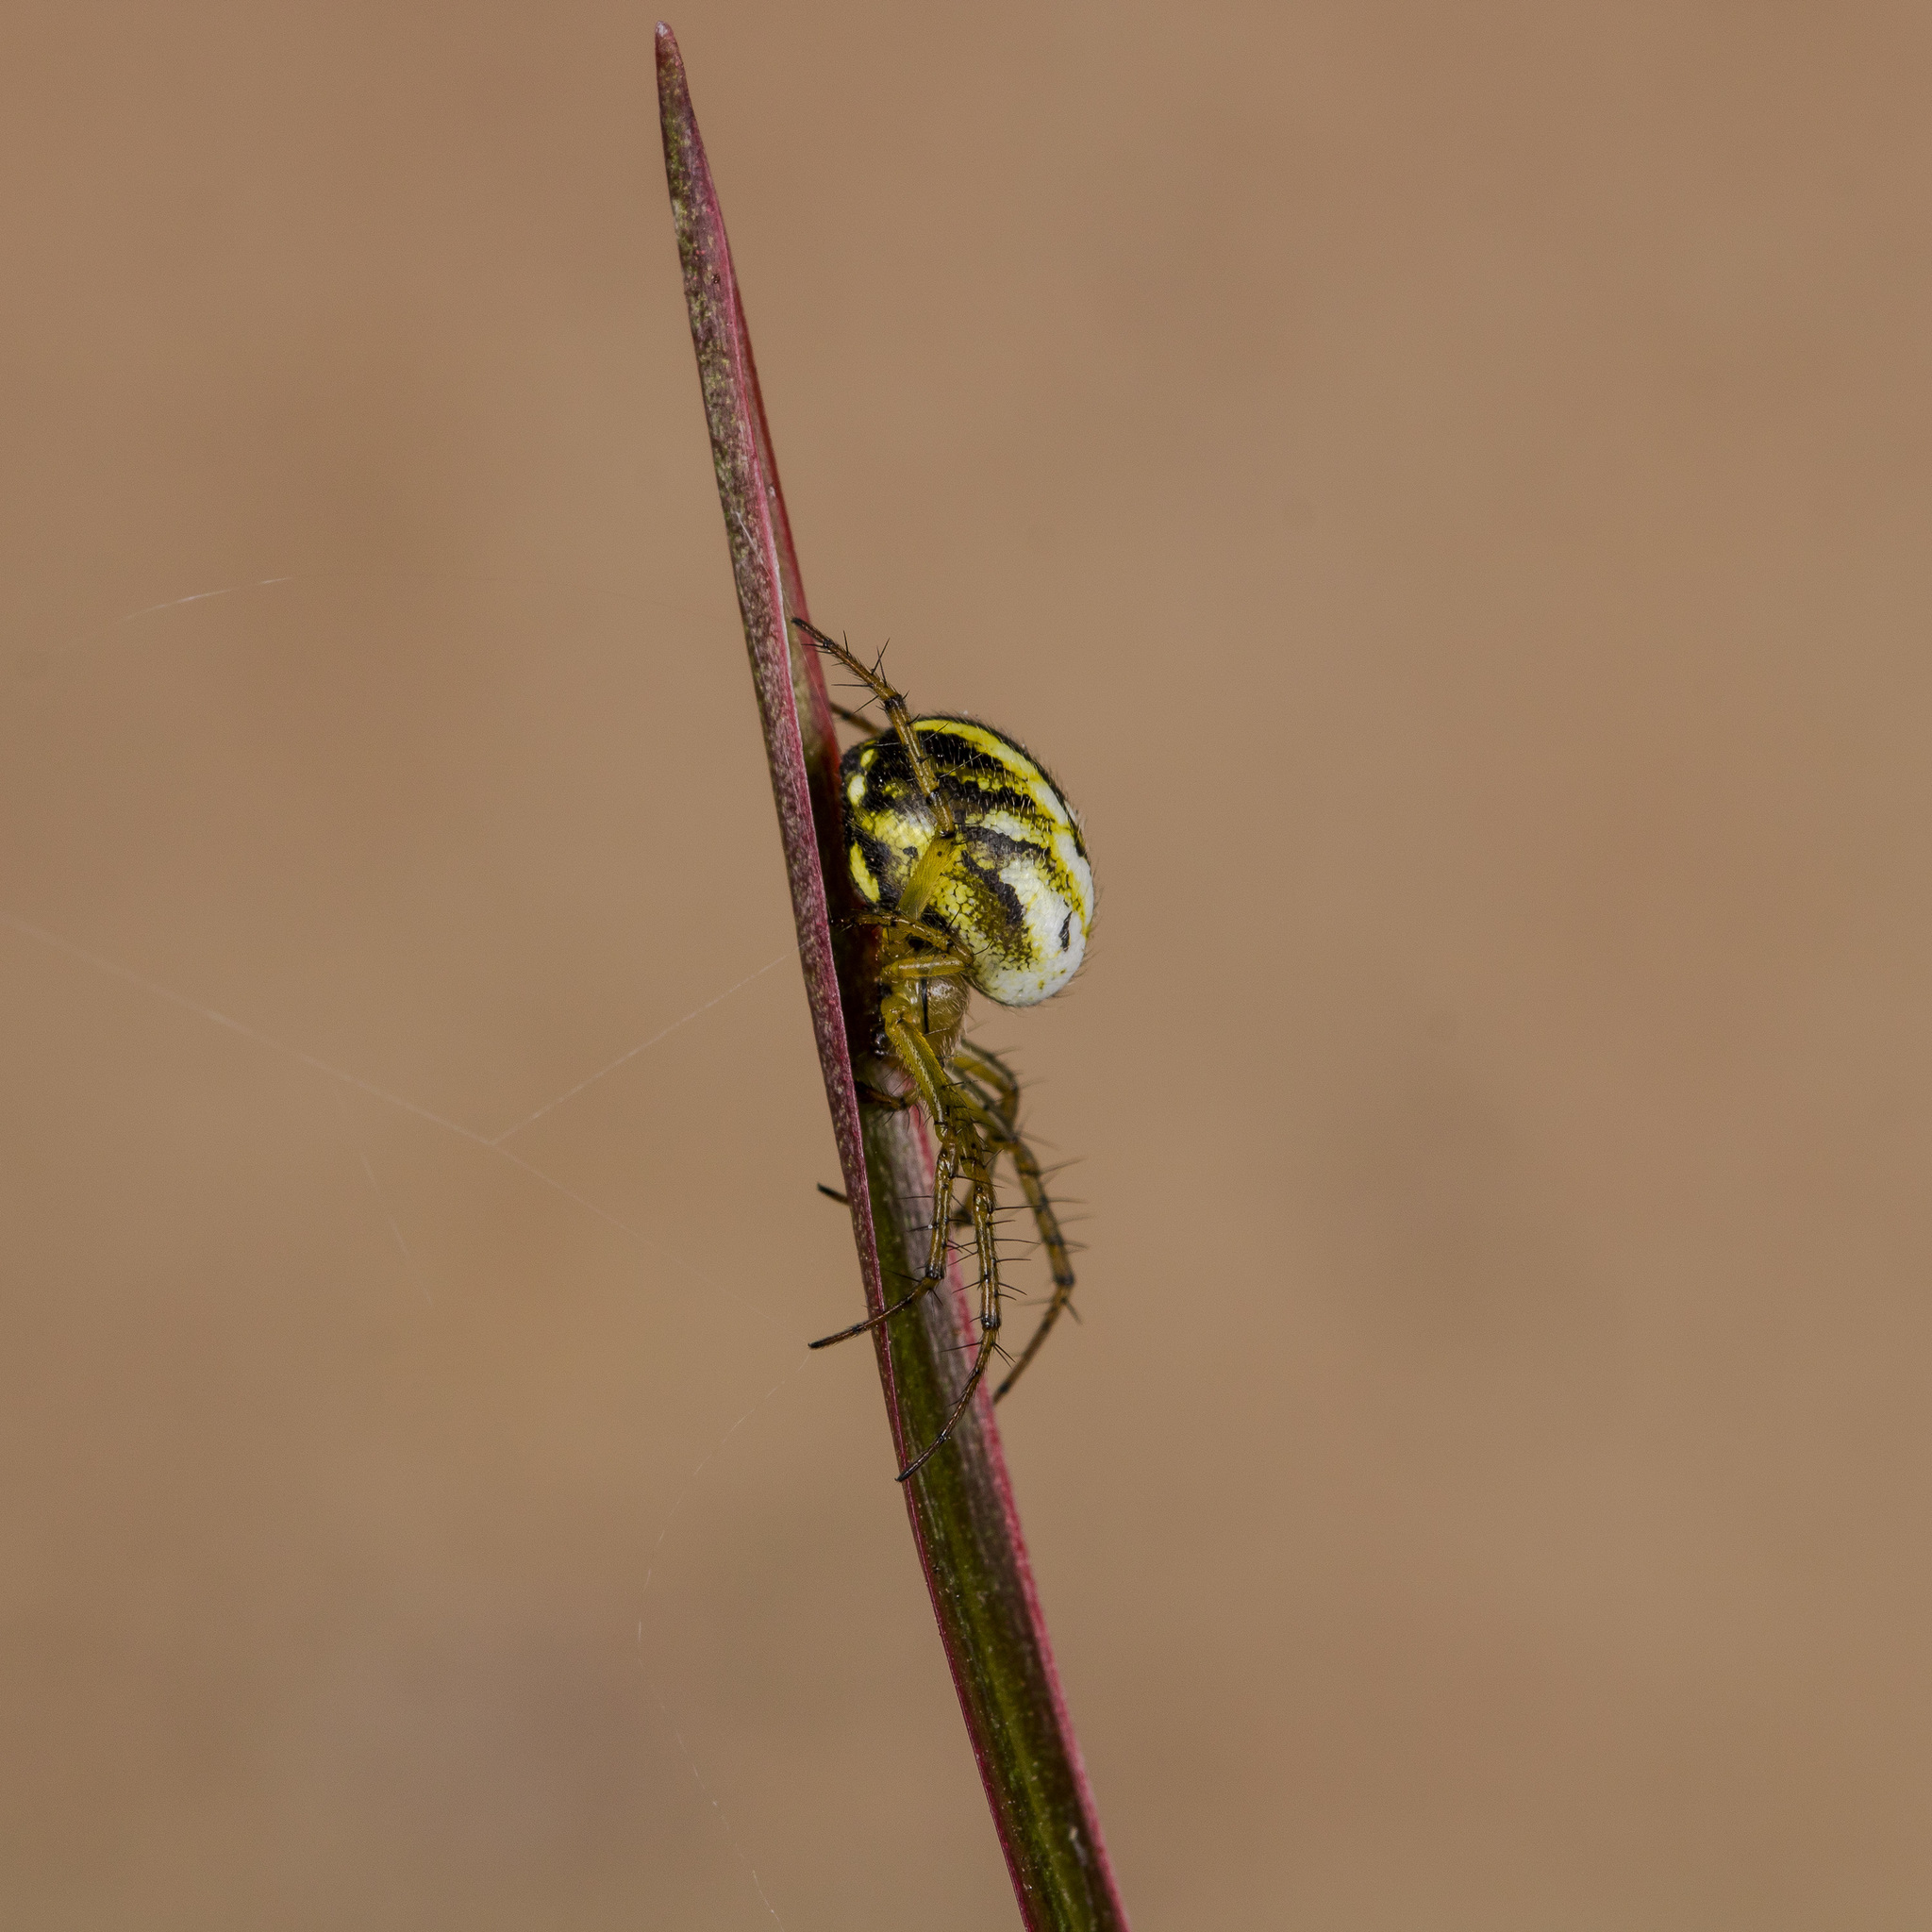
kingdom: Animalia
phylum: Arthropoda
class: Arachnida
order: Araneae
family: Araneidae
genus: Mangora
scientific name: Mangora acalypha
